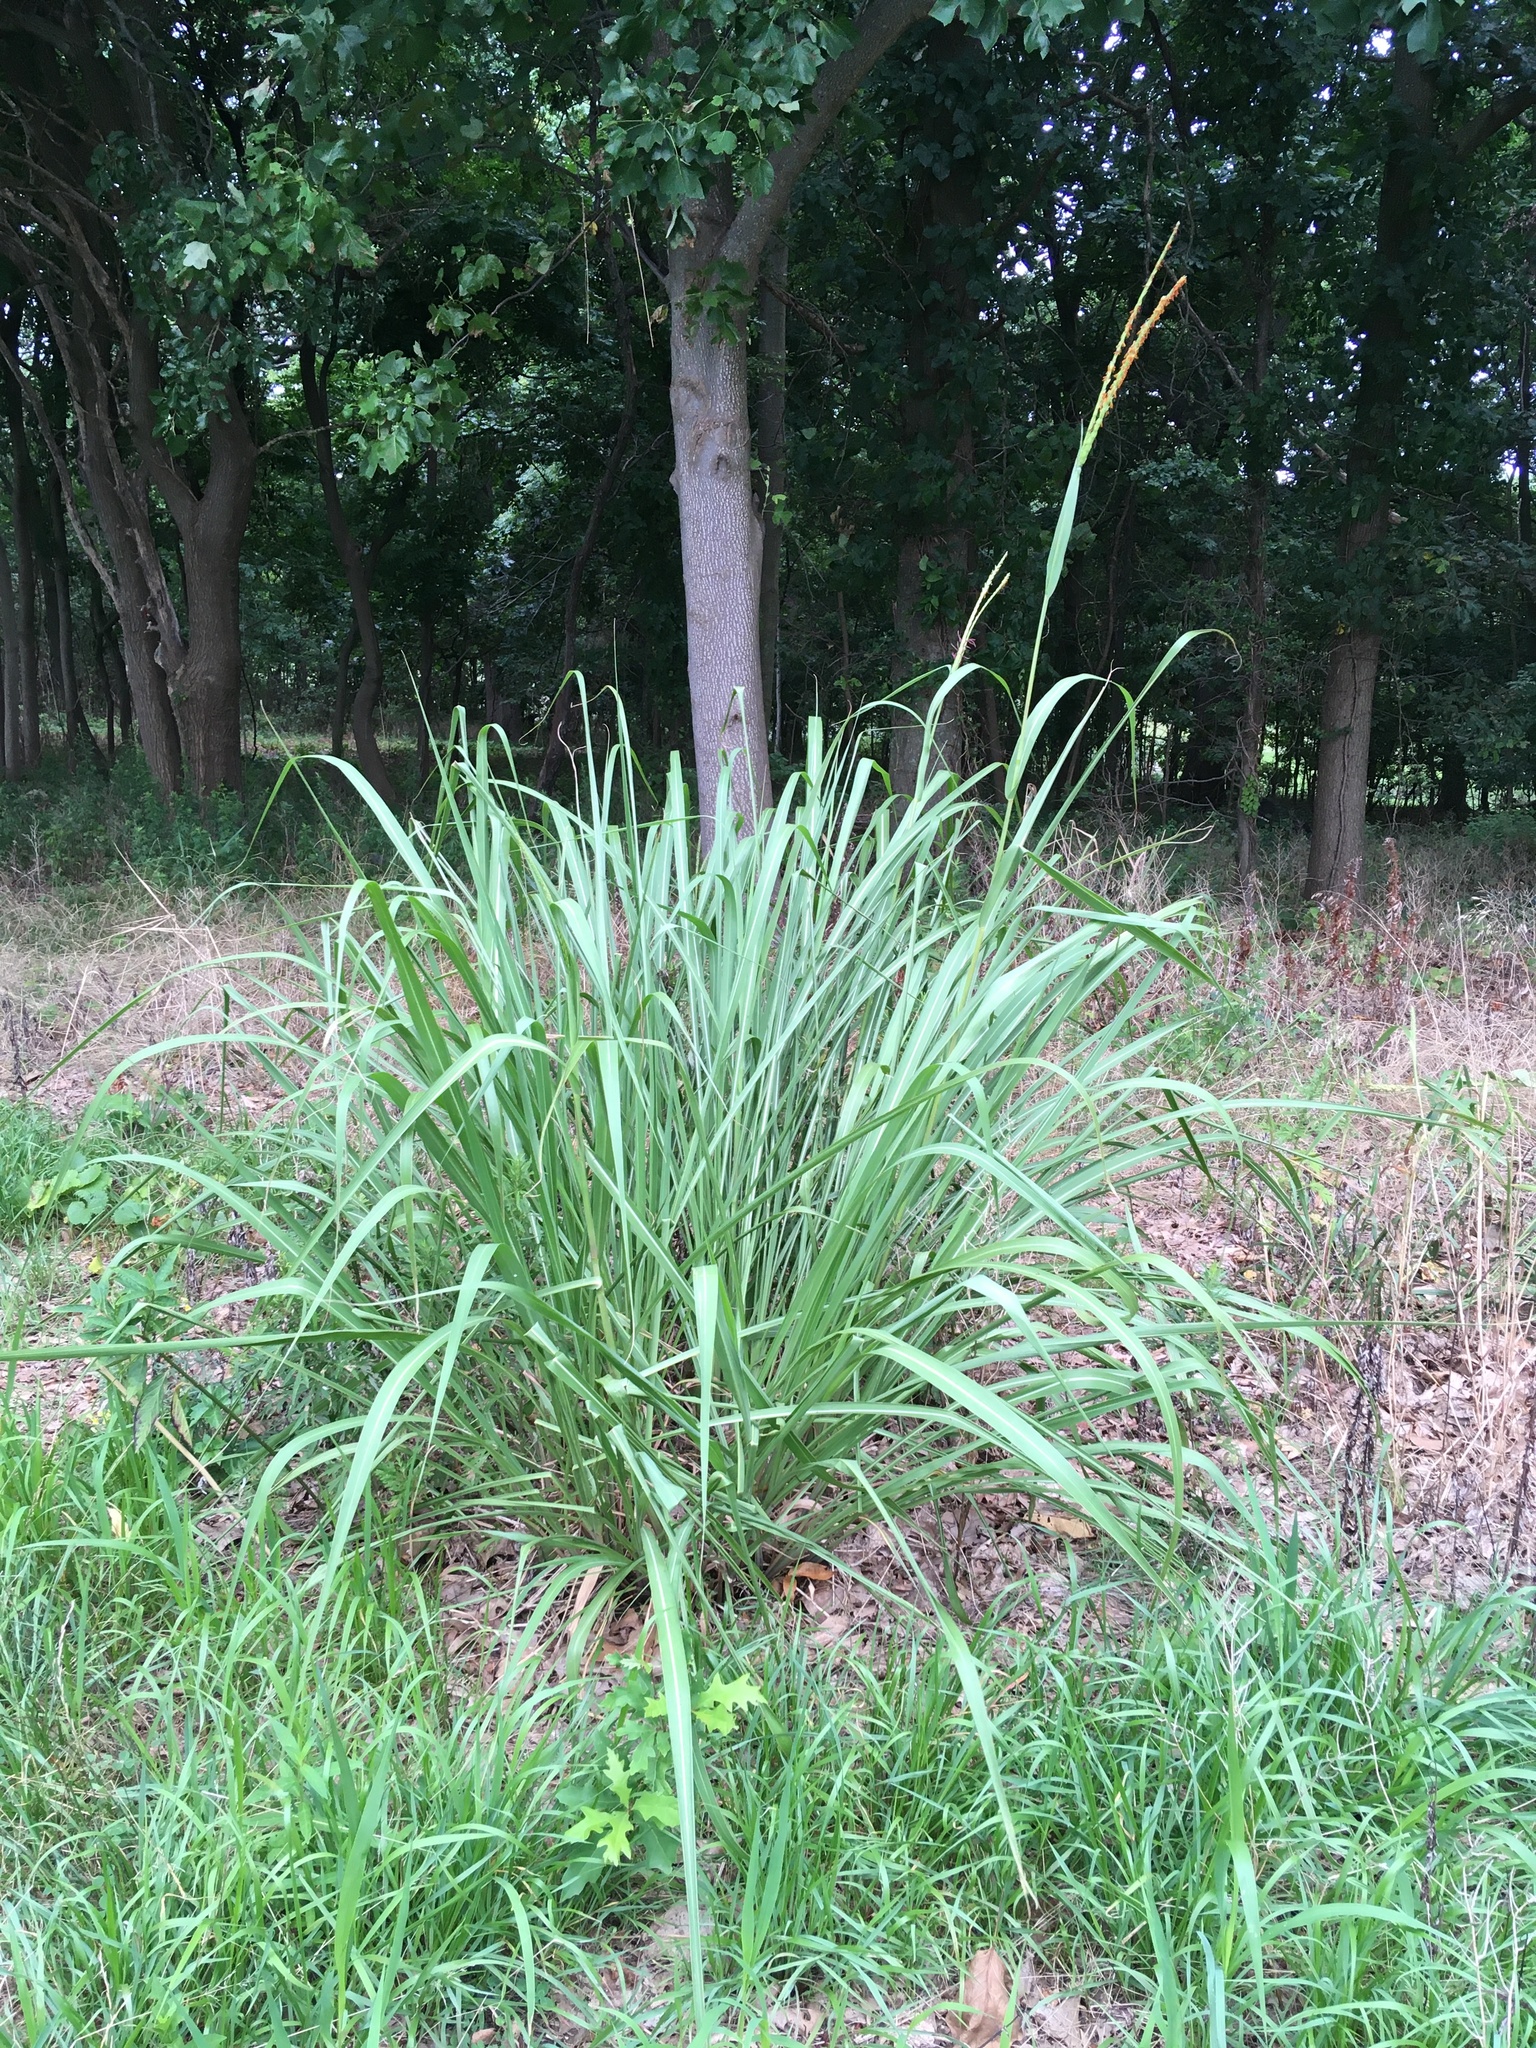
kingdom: Plantae
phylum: Tracheophyta
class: Liliopsida
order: Poales
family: Poaceae
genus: Tripsacum
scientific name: Tripsacum dactyloides
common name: Buffalo-grass
